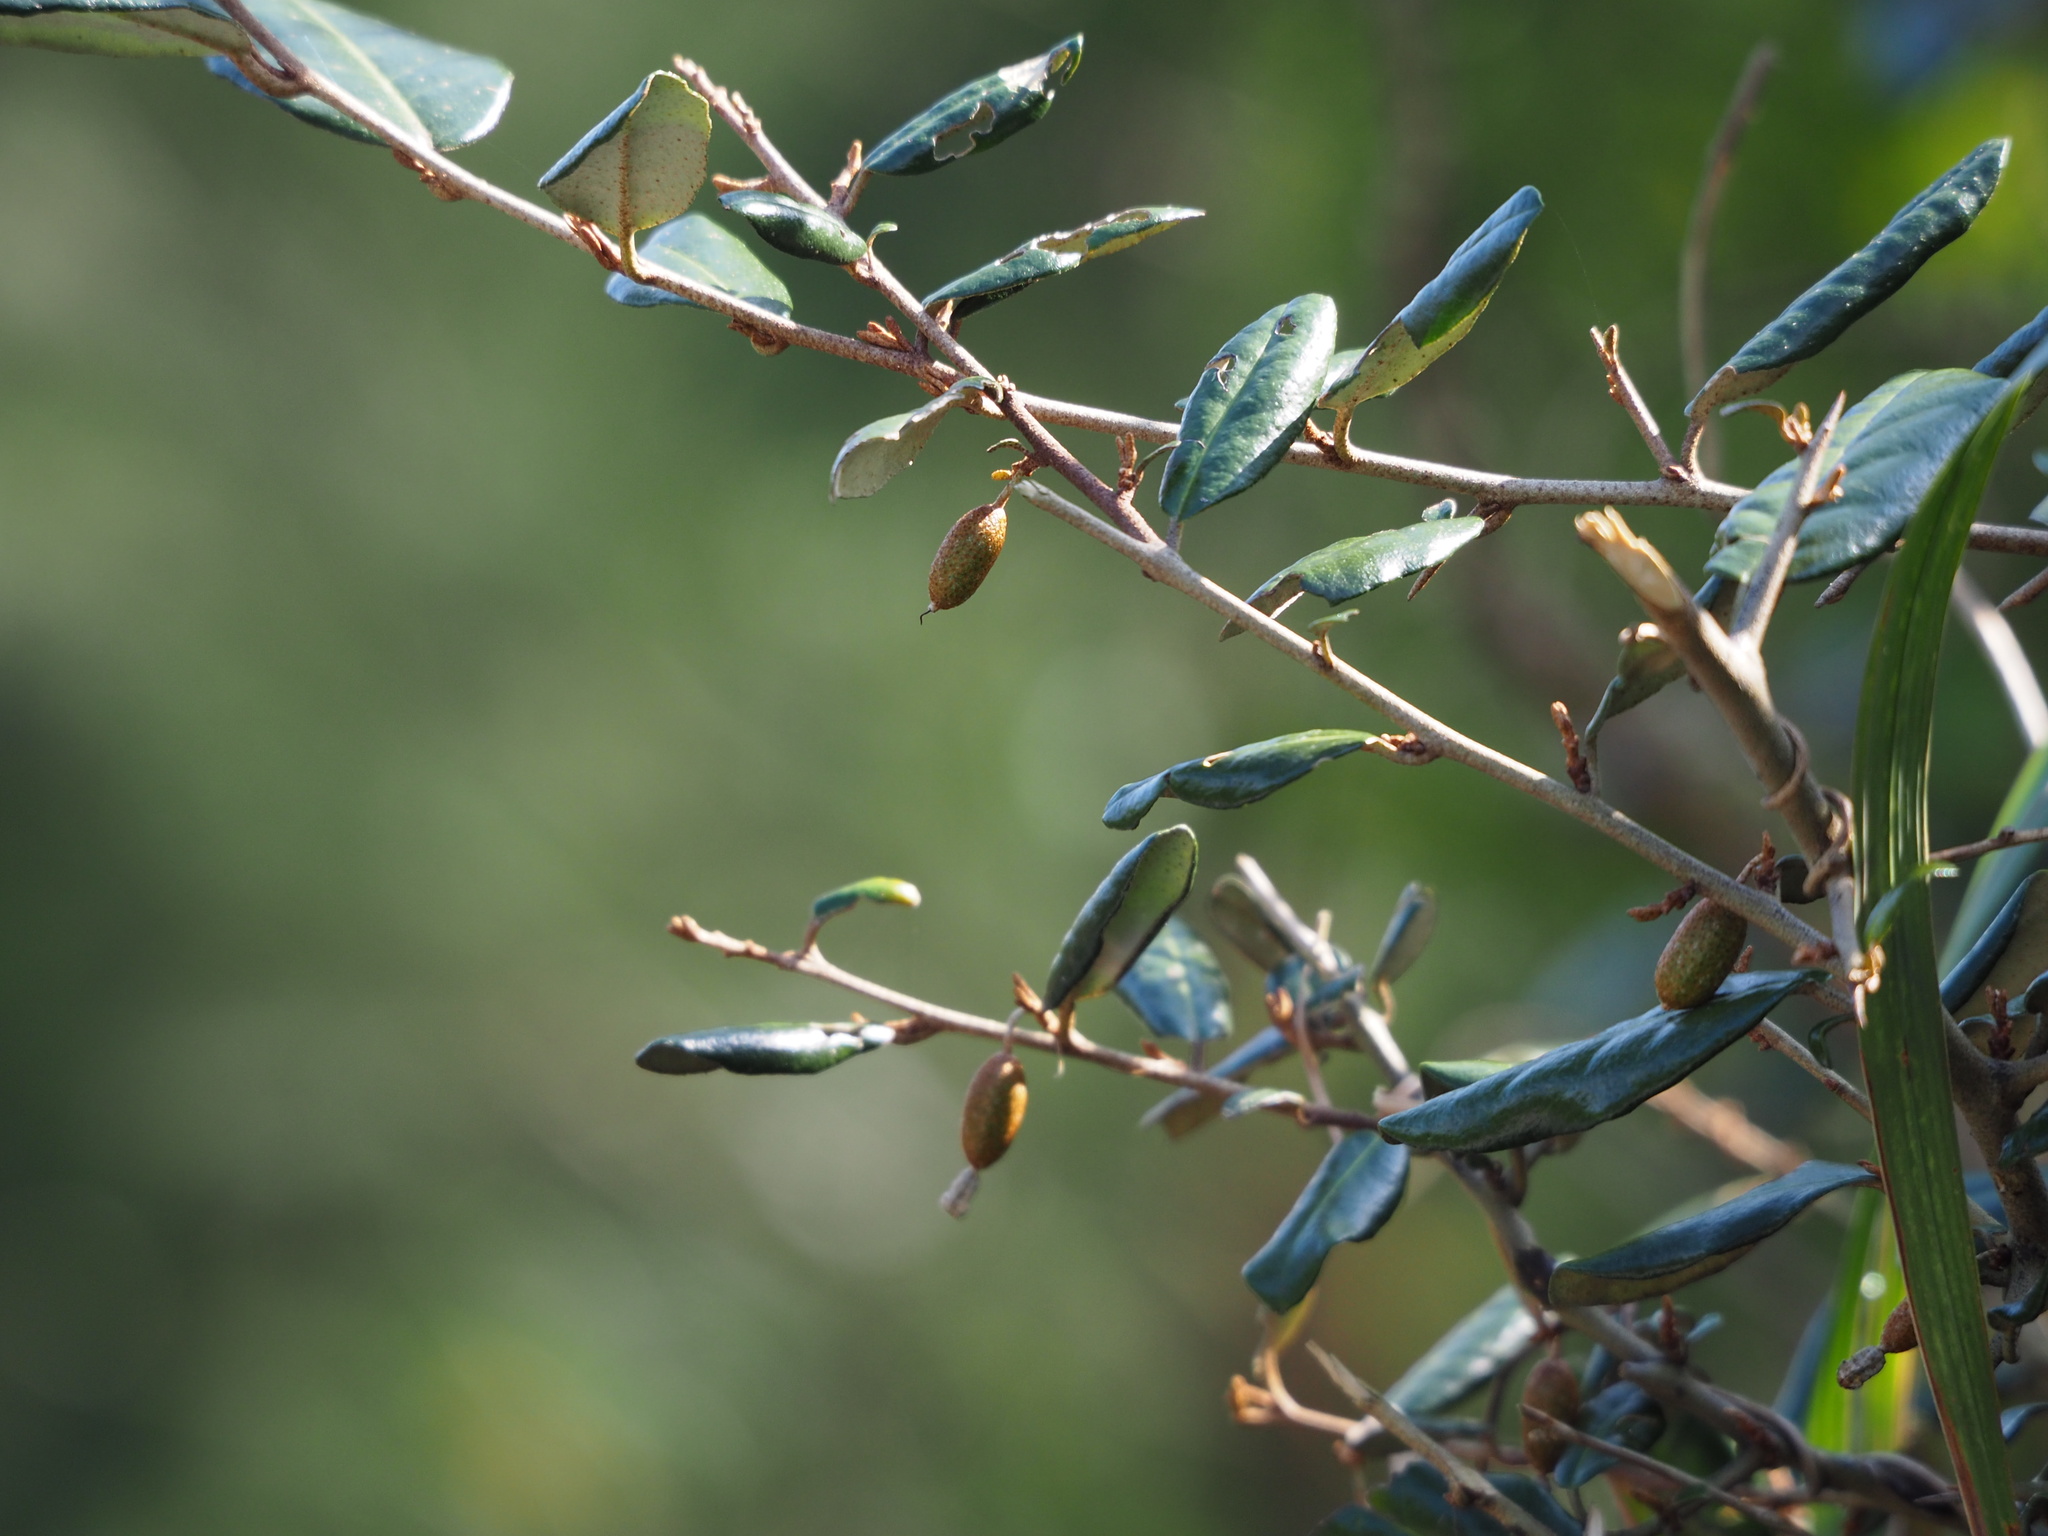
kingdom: Plantae
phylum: Tracheophyta
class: Magnoliopsida
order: Rosales
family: Elaeagnaceae
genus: Elaeagnus
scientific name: Elaeagnus formosana
